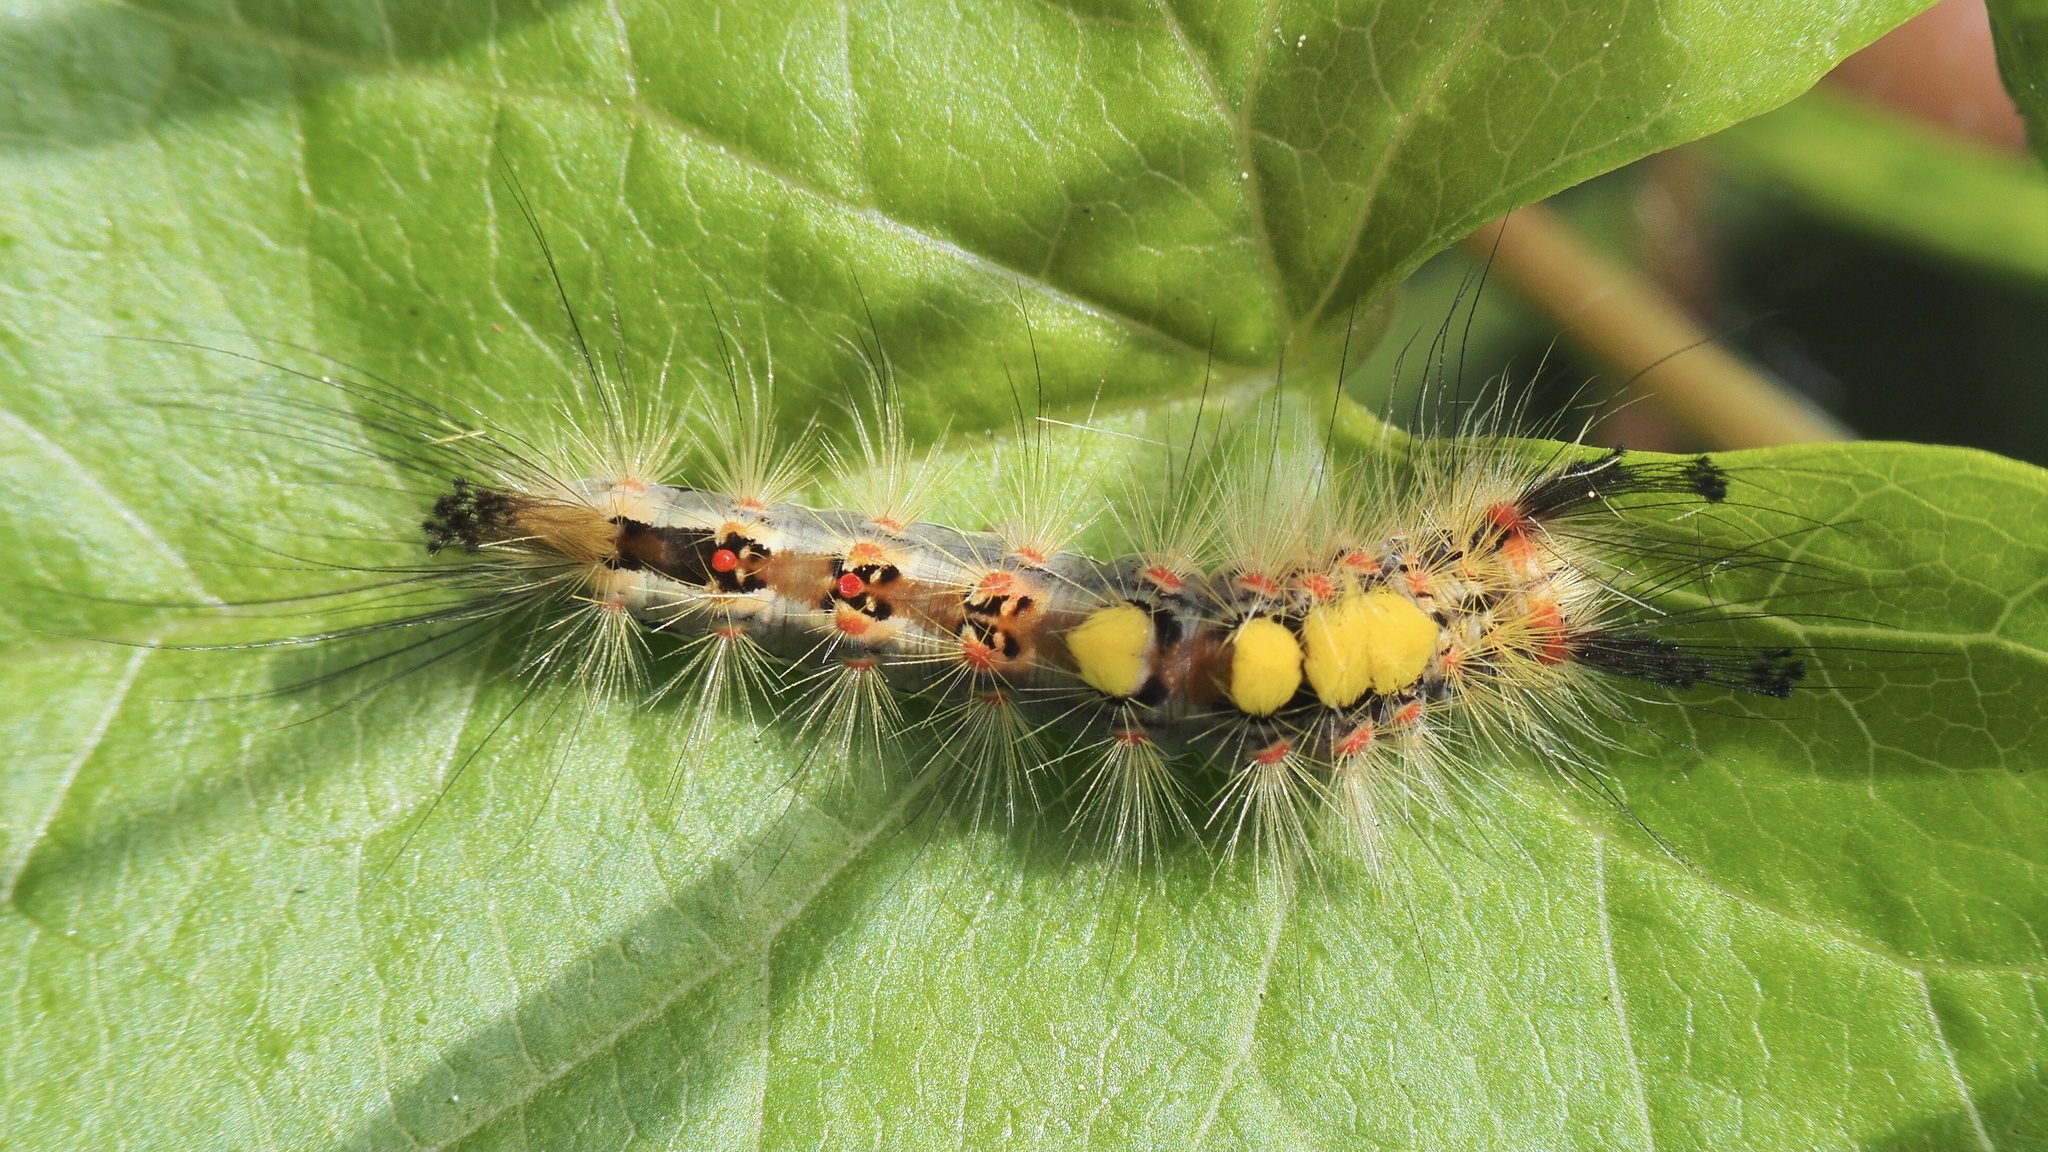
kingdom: Animalia
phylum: Arthropoda
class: Insecta
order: Lepidoptera
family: Erebidae
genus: Orgyia
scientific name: Orgyia antiqua
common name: Vapourer
